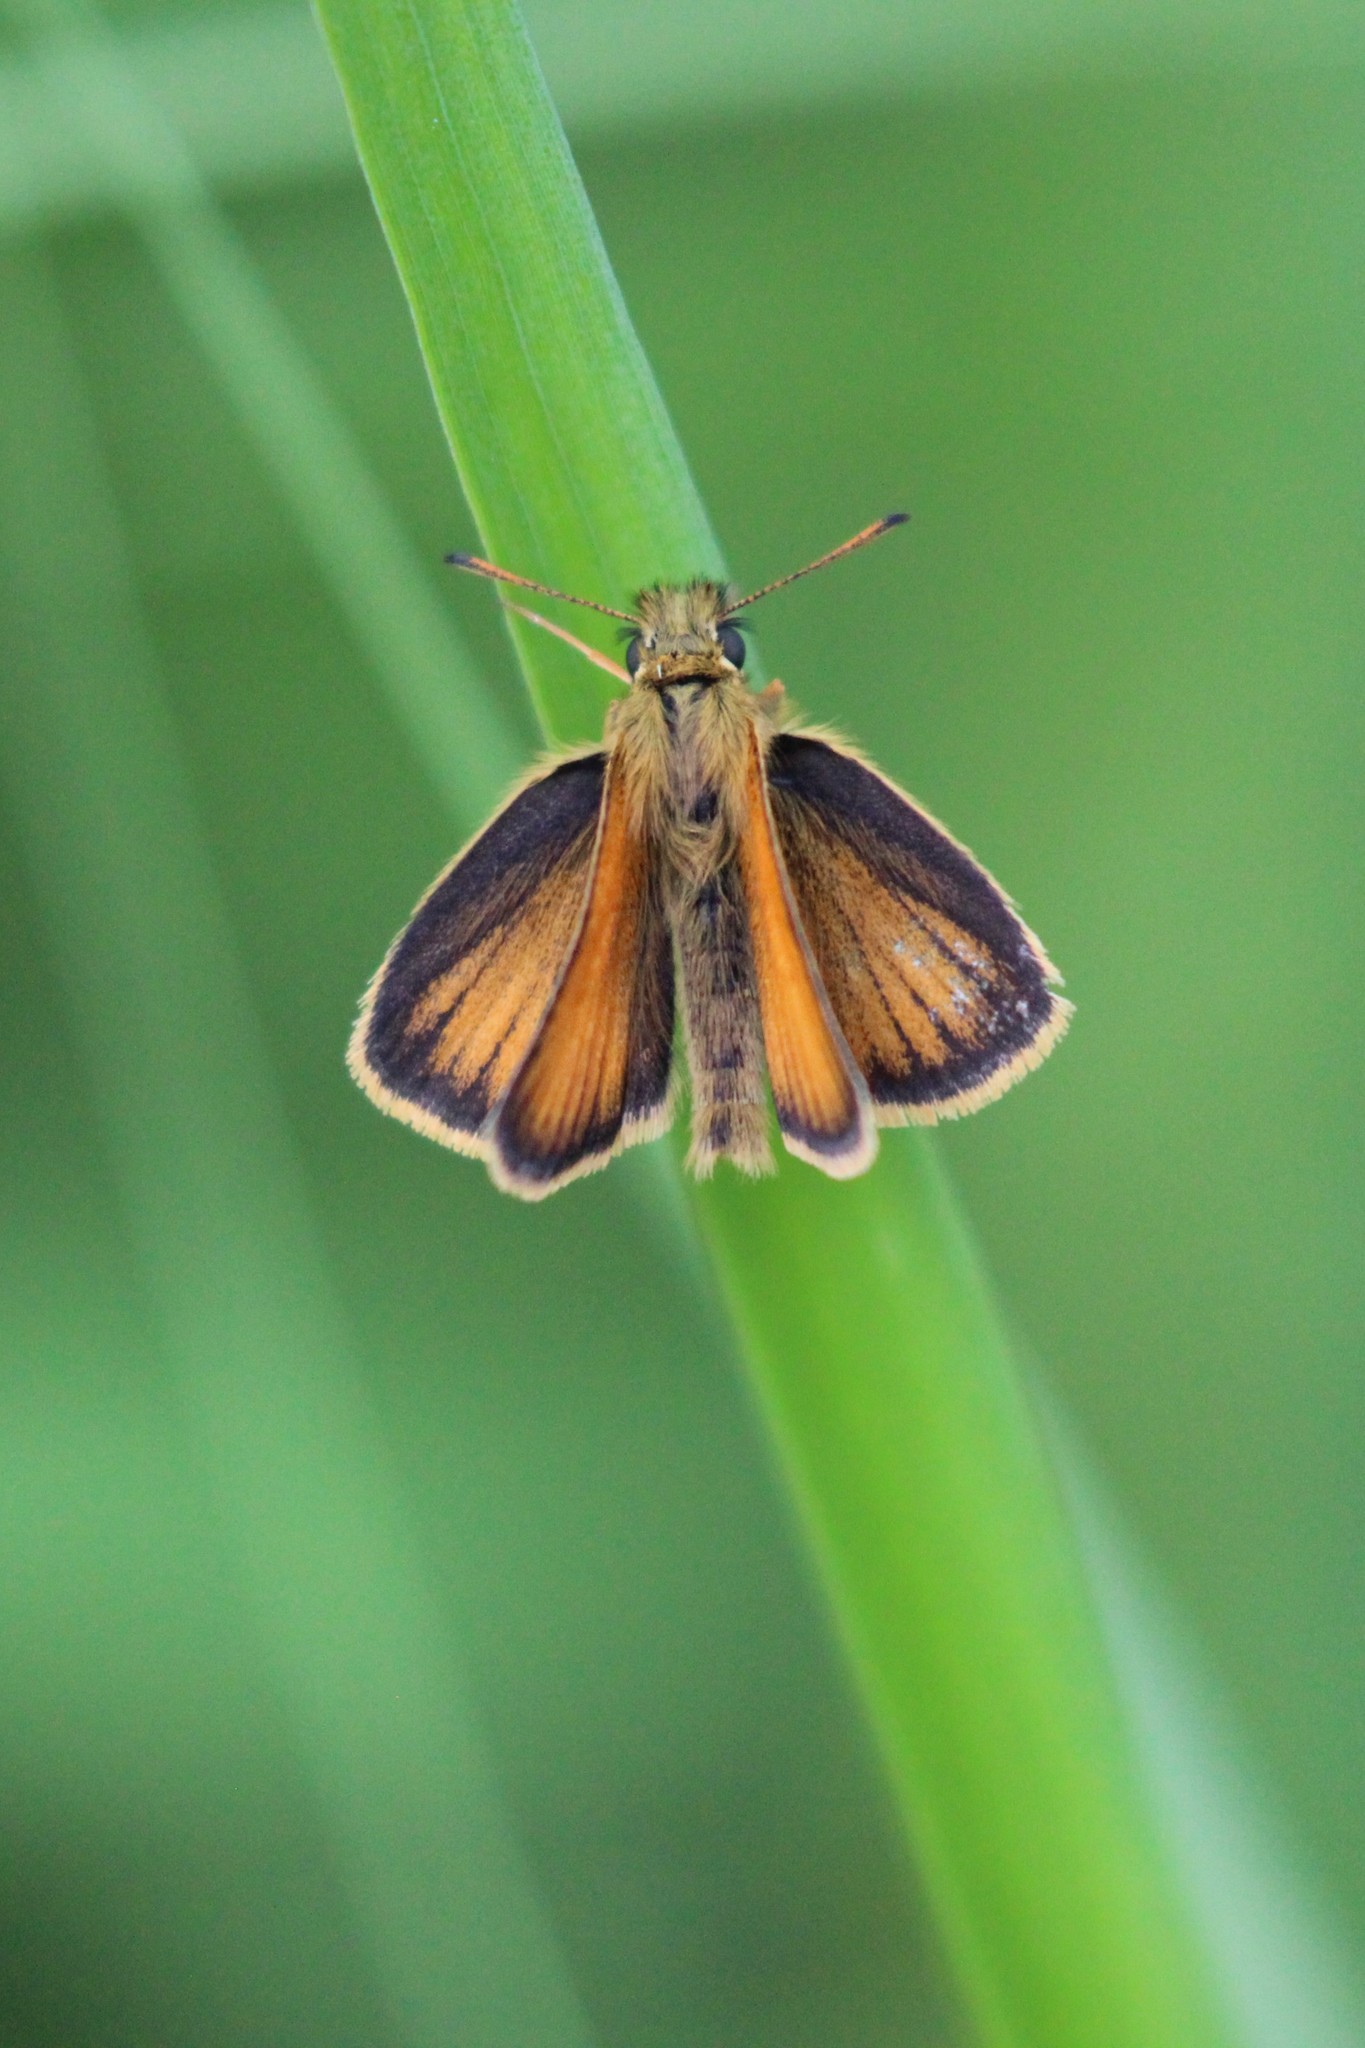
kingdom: Animalia
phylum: Arthropoda
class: Insecta
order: Lepidoptera
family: Hesperiidae
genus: Thymelicus
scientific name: Thymelicus lineola
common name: Essex skipper
